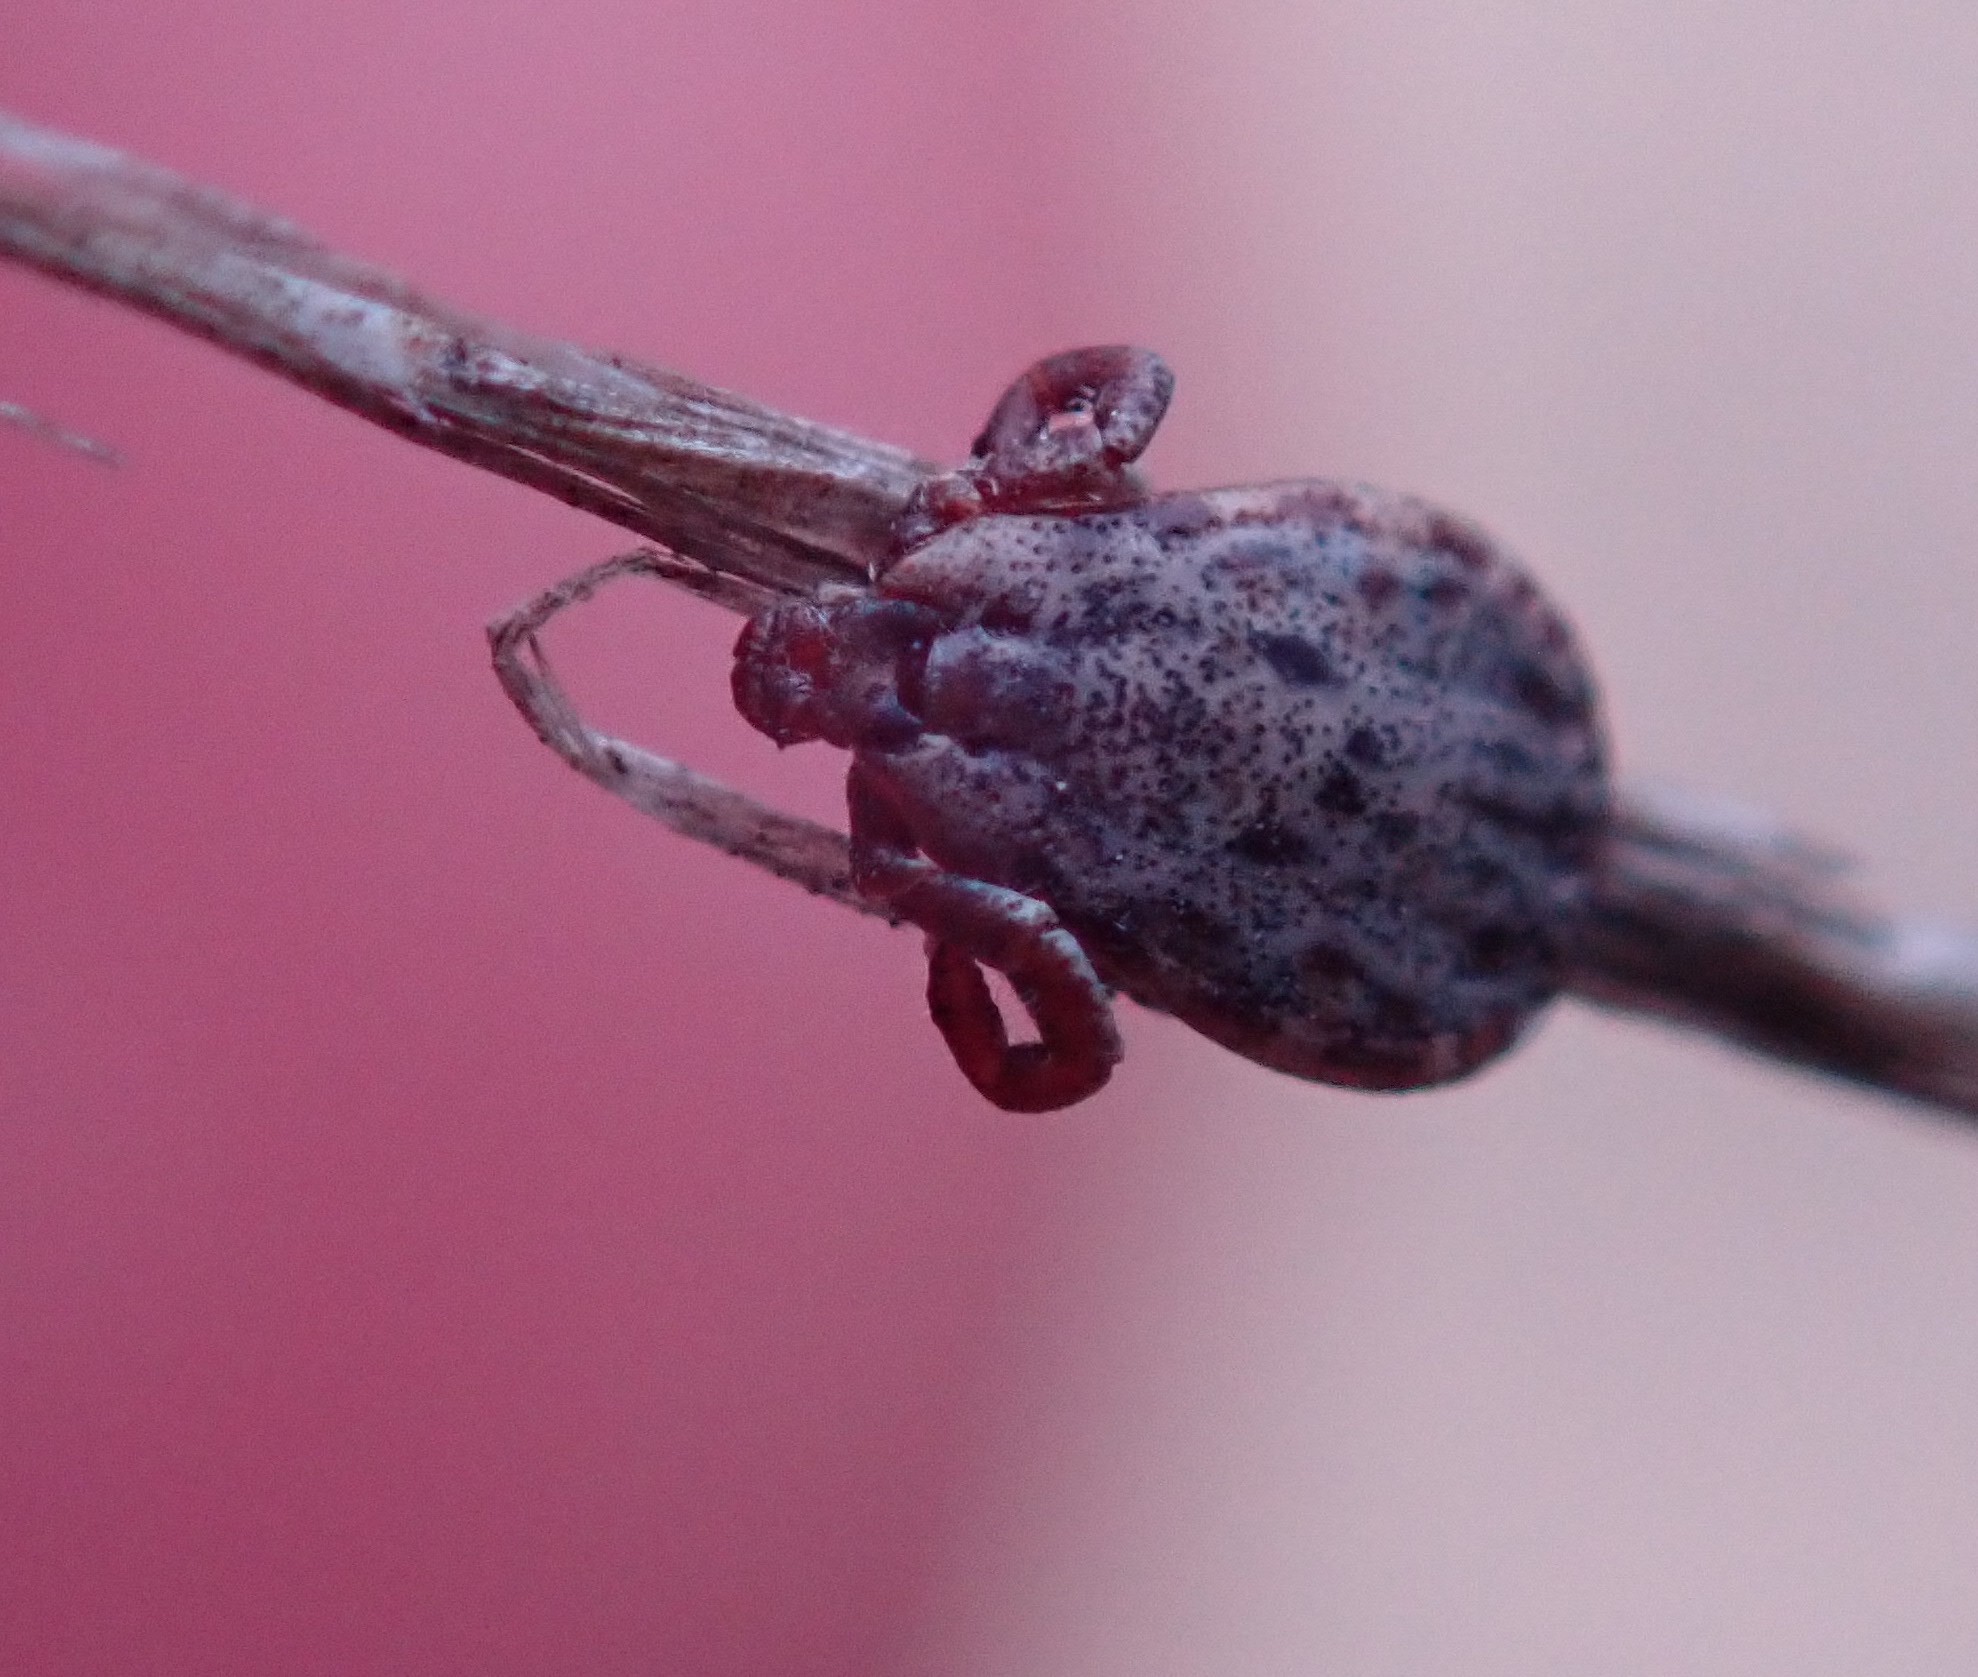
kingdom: Animalia
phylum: Arthropoda
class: Arachnida
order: Ixodida
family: Ixodidae
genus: Dermacentor
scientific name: Dermacentor occidentalis
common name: Net tick
